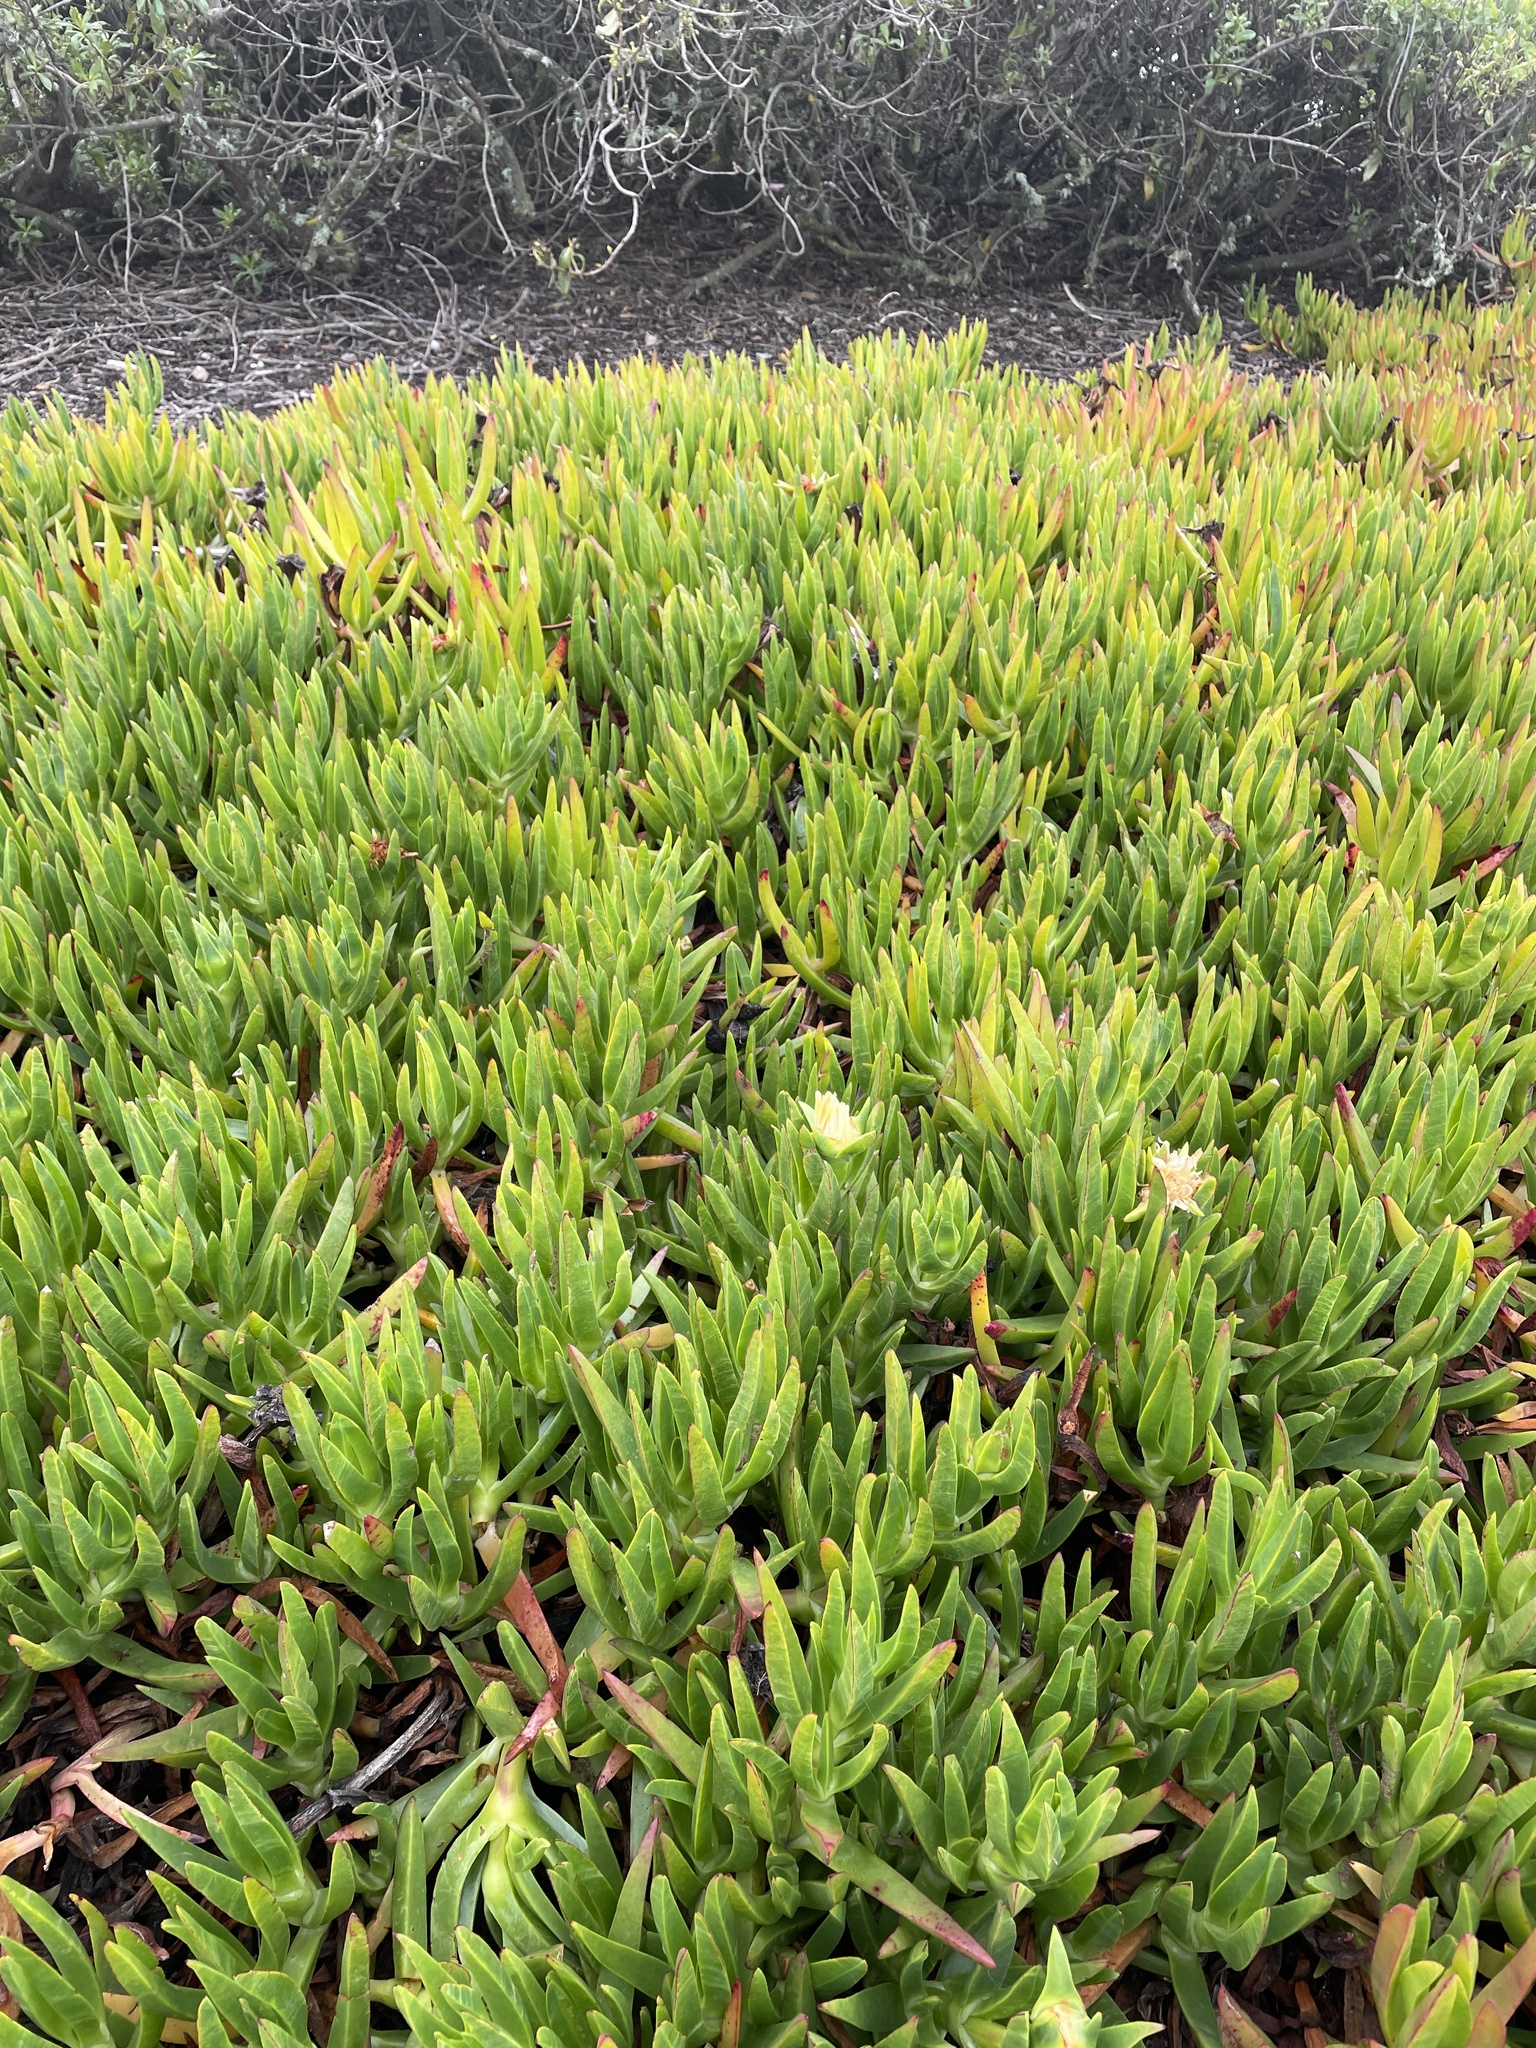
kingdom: Plantae
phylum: Tracheophyta
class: Magnoliopsida
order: Caryophyllales
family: Aizoaceae
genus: Carpobrotus
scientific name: Carpobrotus edulis
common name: Hottentot-fig
